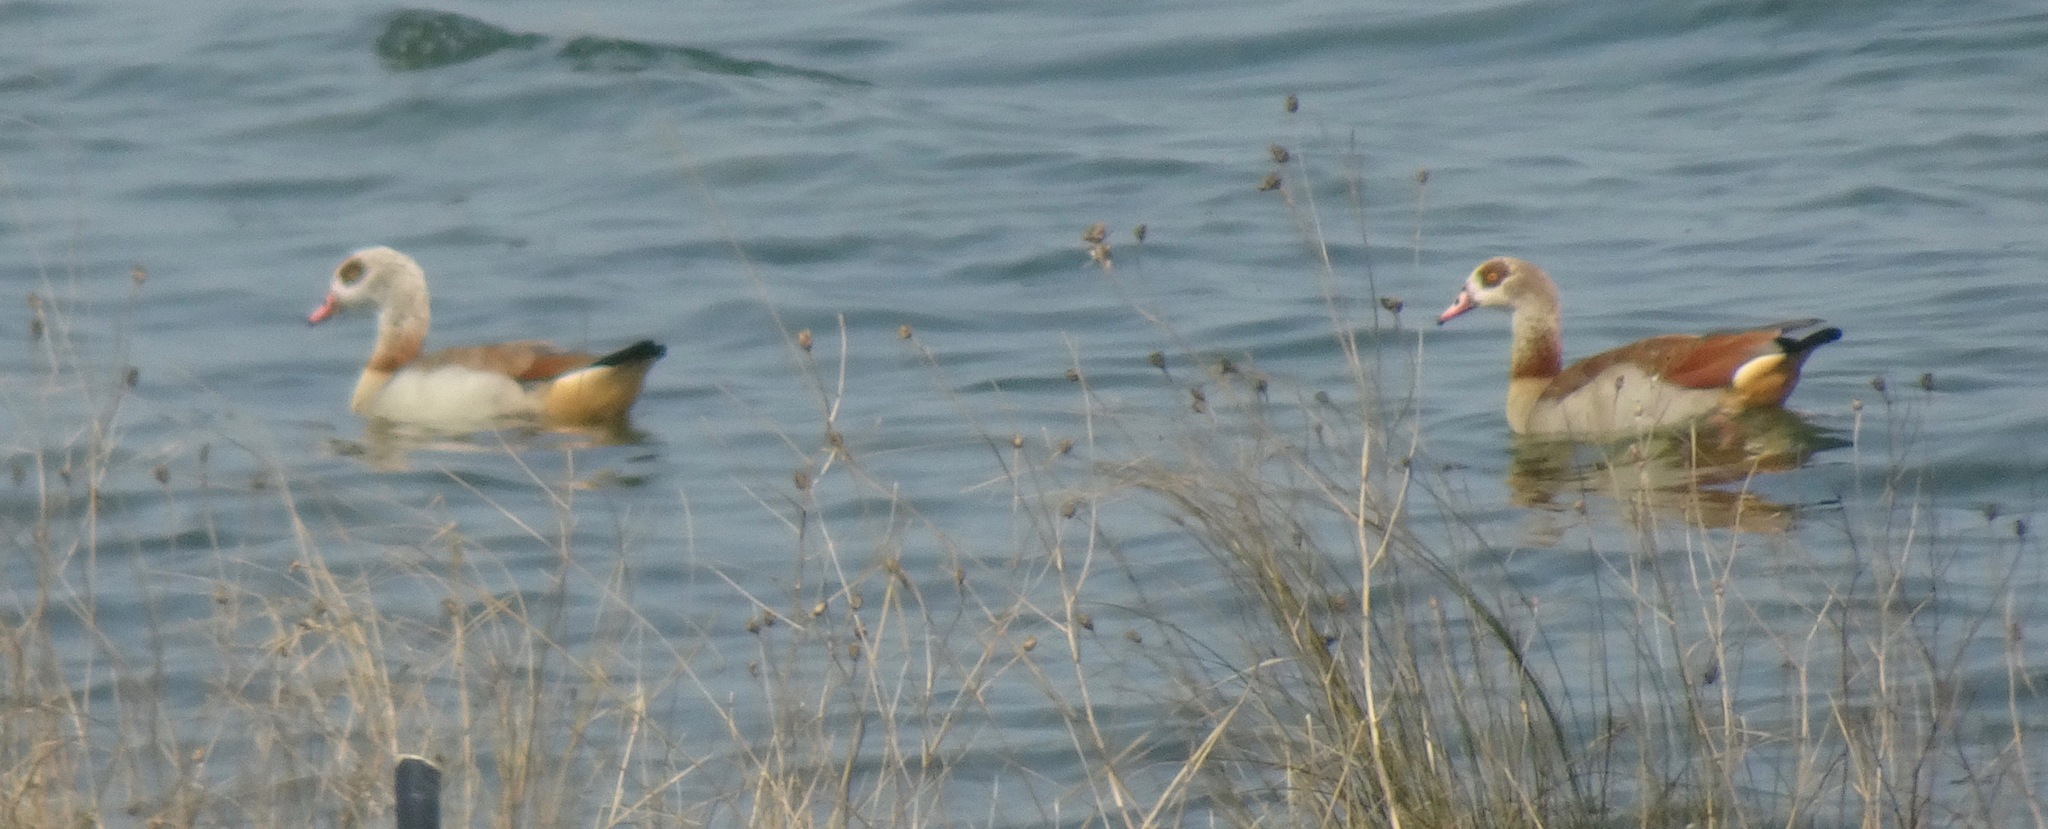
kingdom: Animalia
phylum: Chordata
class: Aves
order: Anseriformes
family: Anatidae
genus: Alopochen
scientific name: Alopochen aegyptiaca
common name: Egyptian goose
